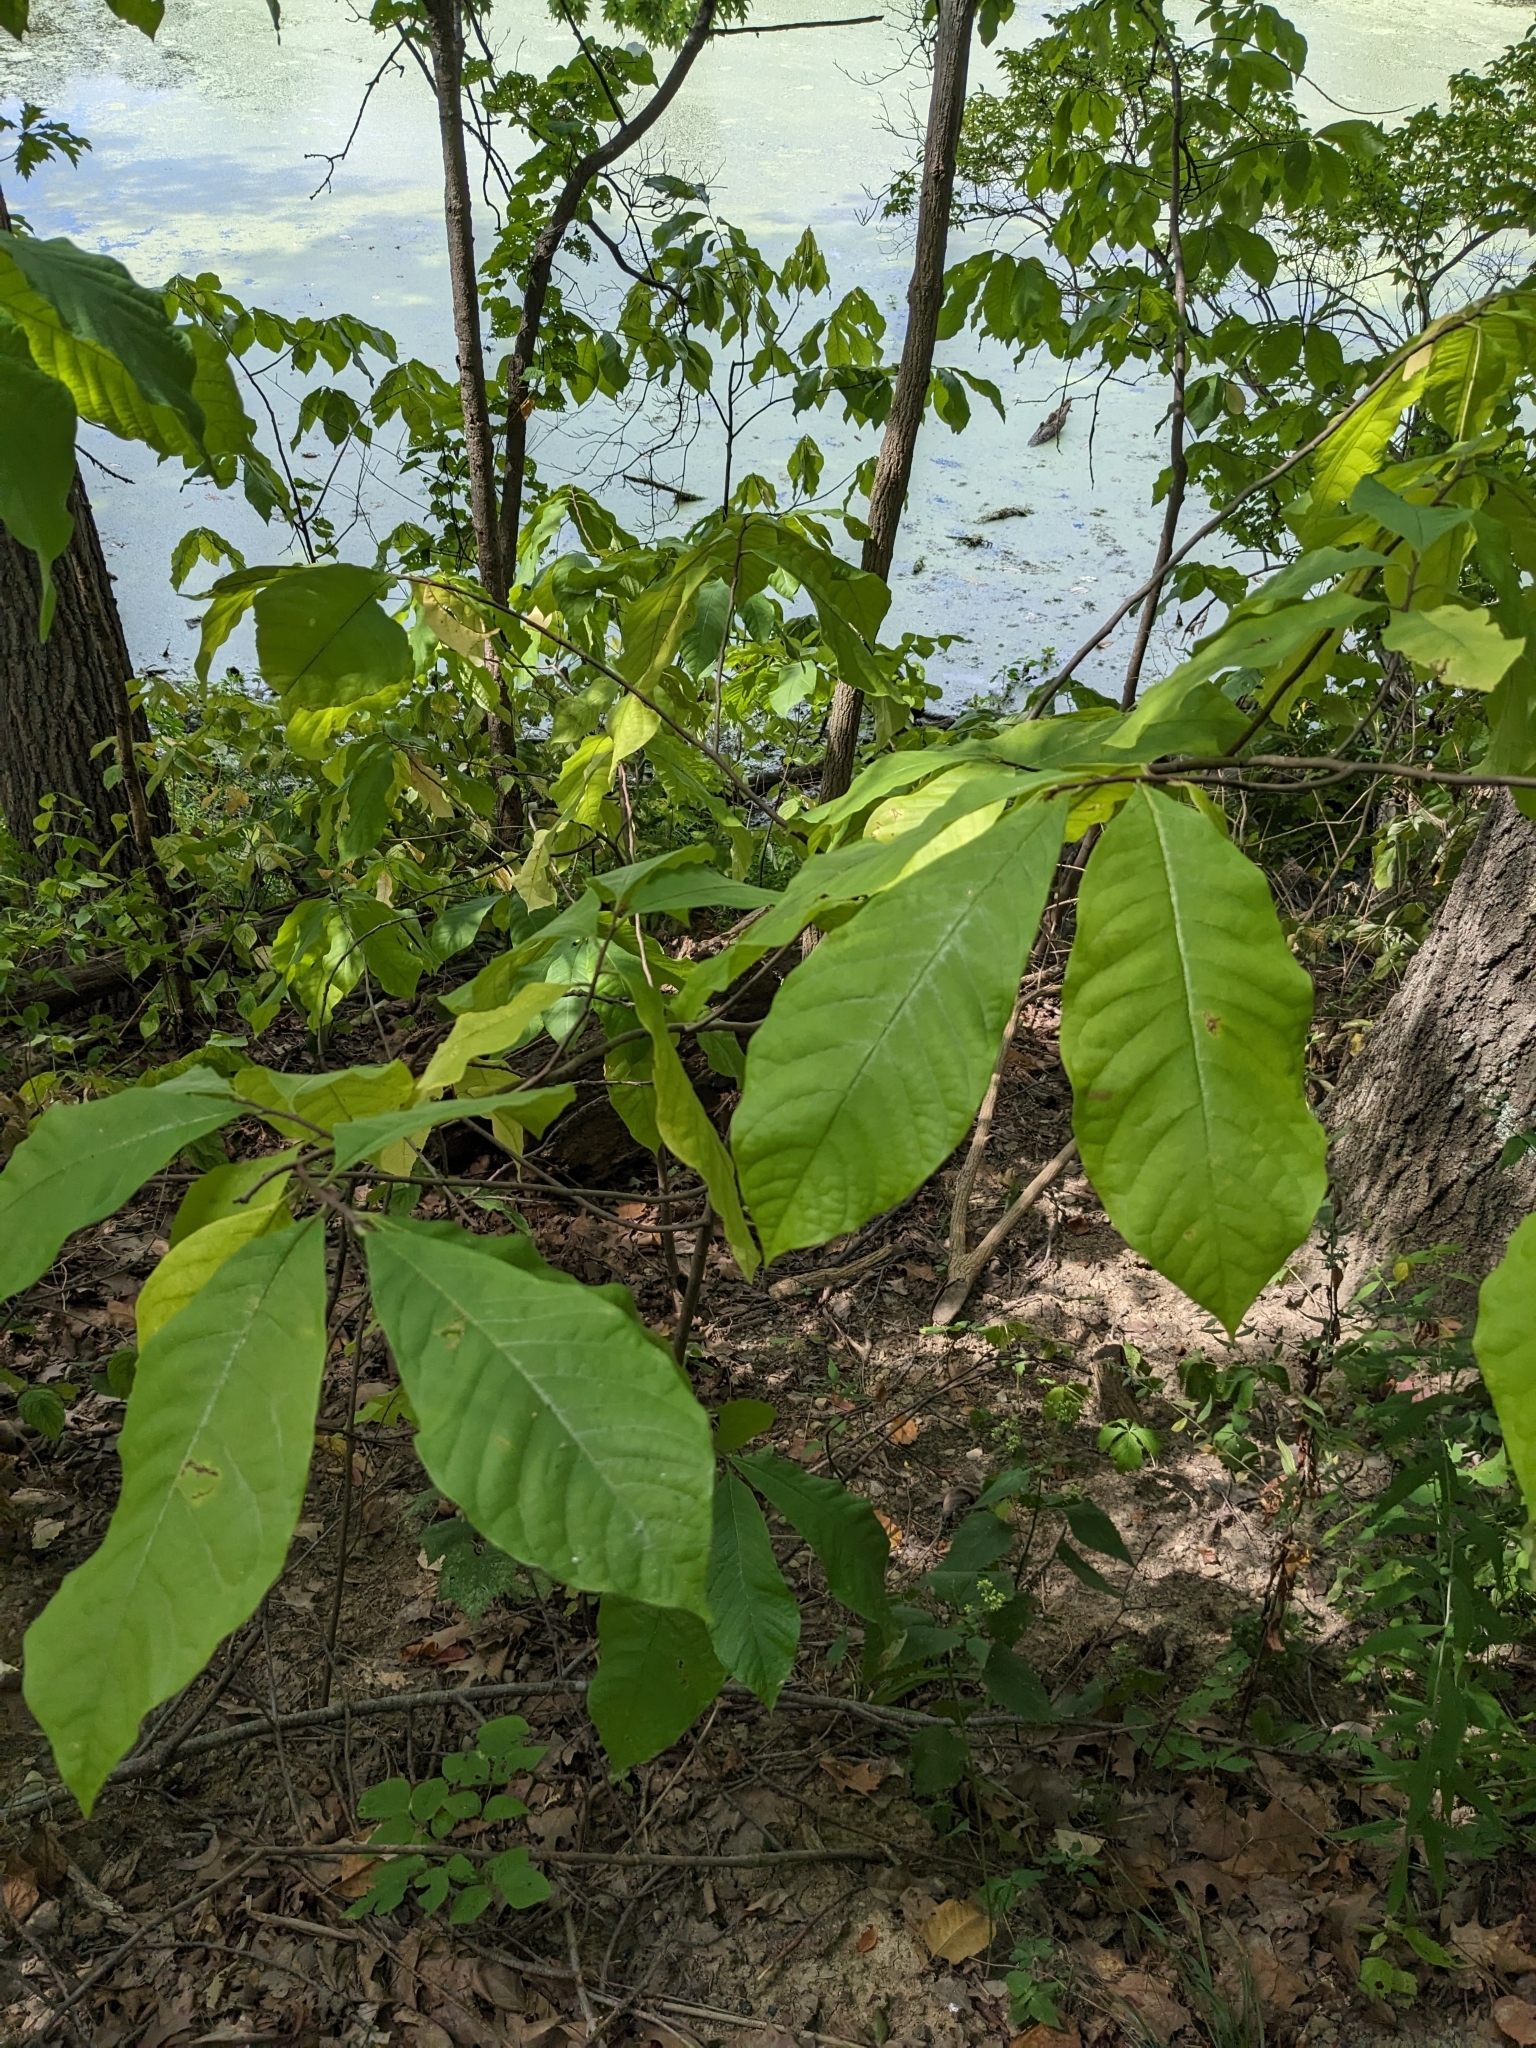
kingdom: Plantae
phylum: Tracheophyta
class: Magnoliopsida
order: Magnoliales
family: Annonaceae
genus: Asimina
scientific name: Asimina triloba
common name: Dog-banana
